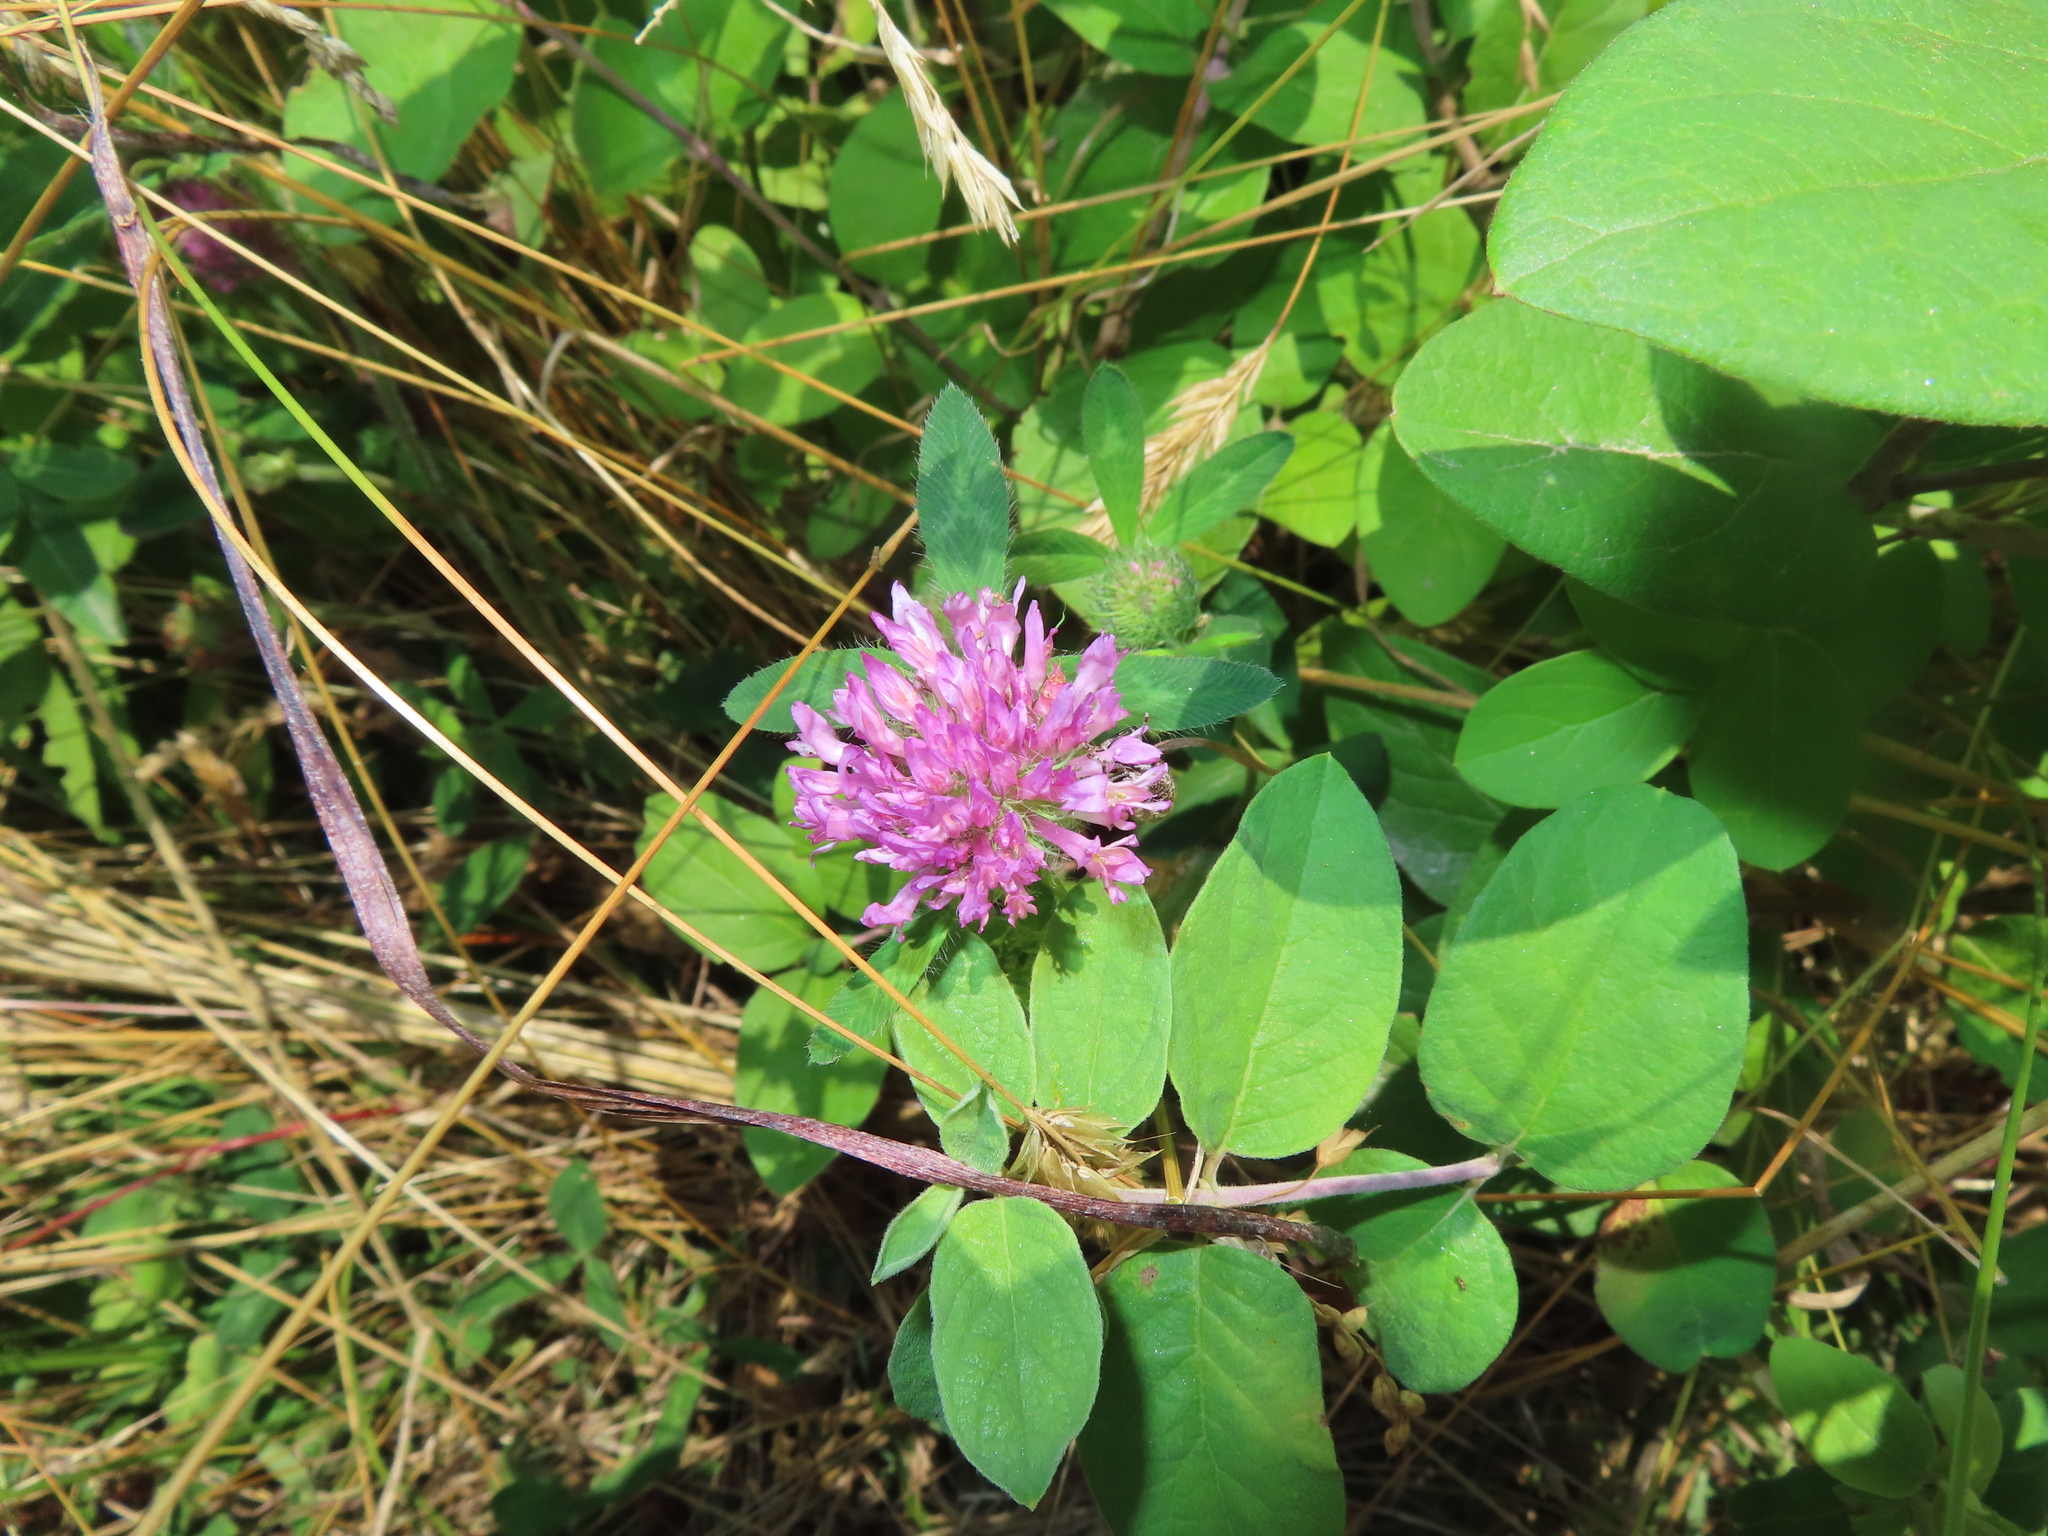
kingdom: Plantae
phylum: Tracheophyta
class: Magnoliopsida
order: Fabales
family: Fabaceae
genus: Trifolium
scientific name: Trifolium pratense
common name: Red clover
